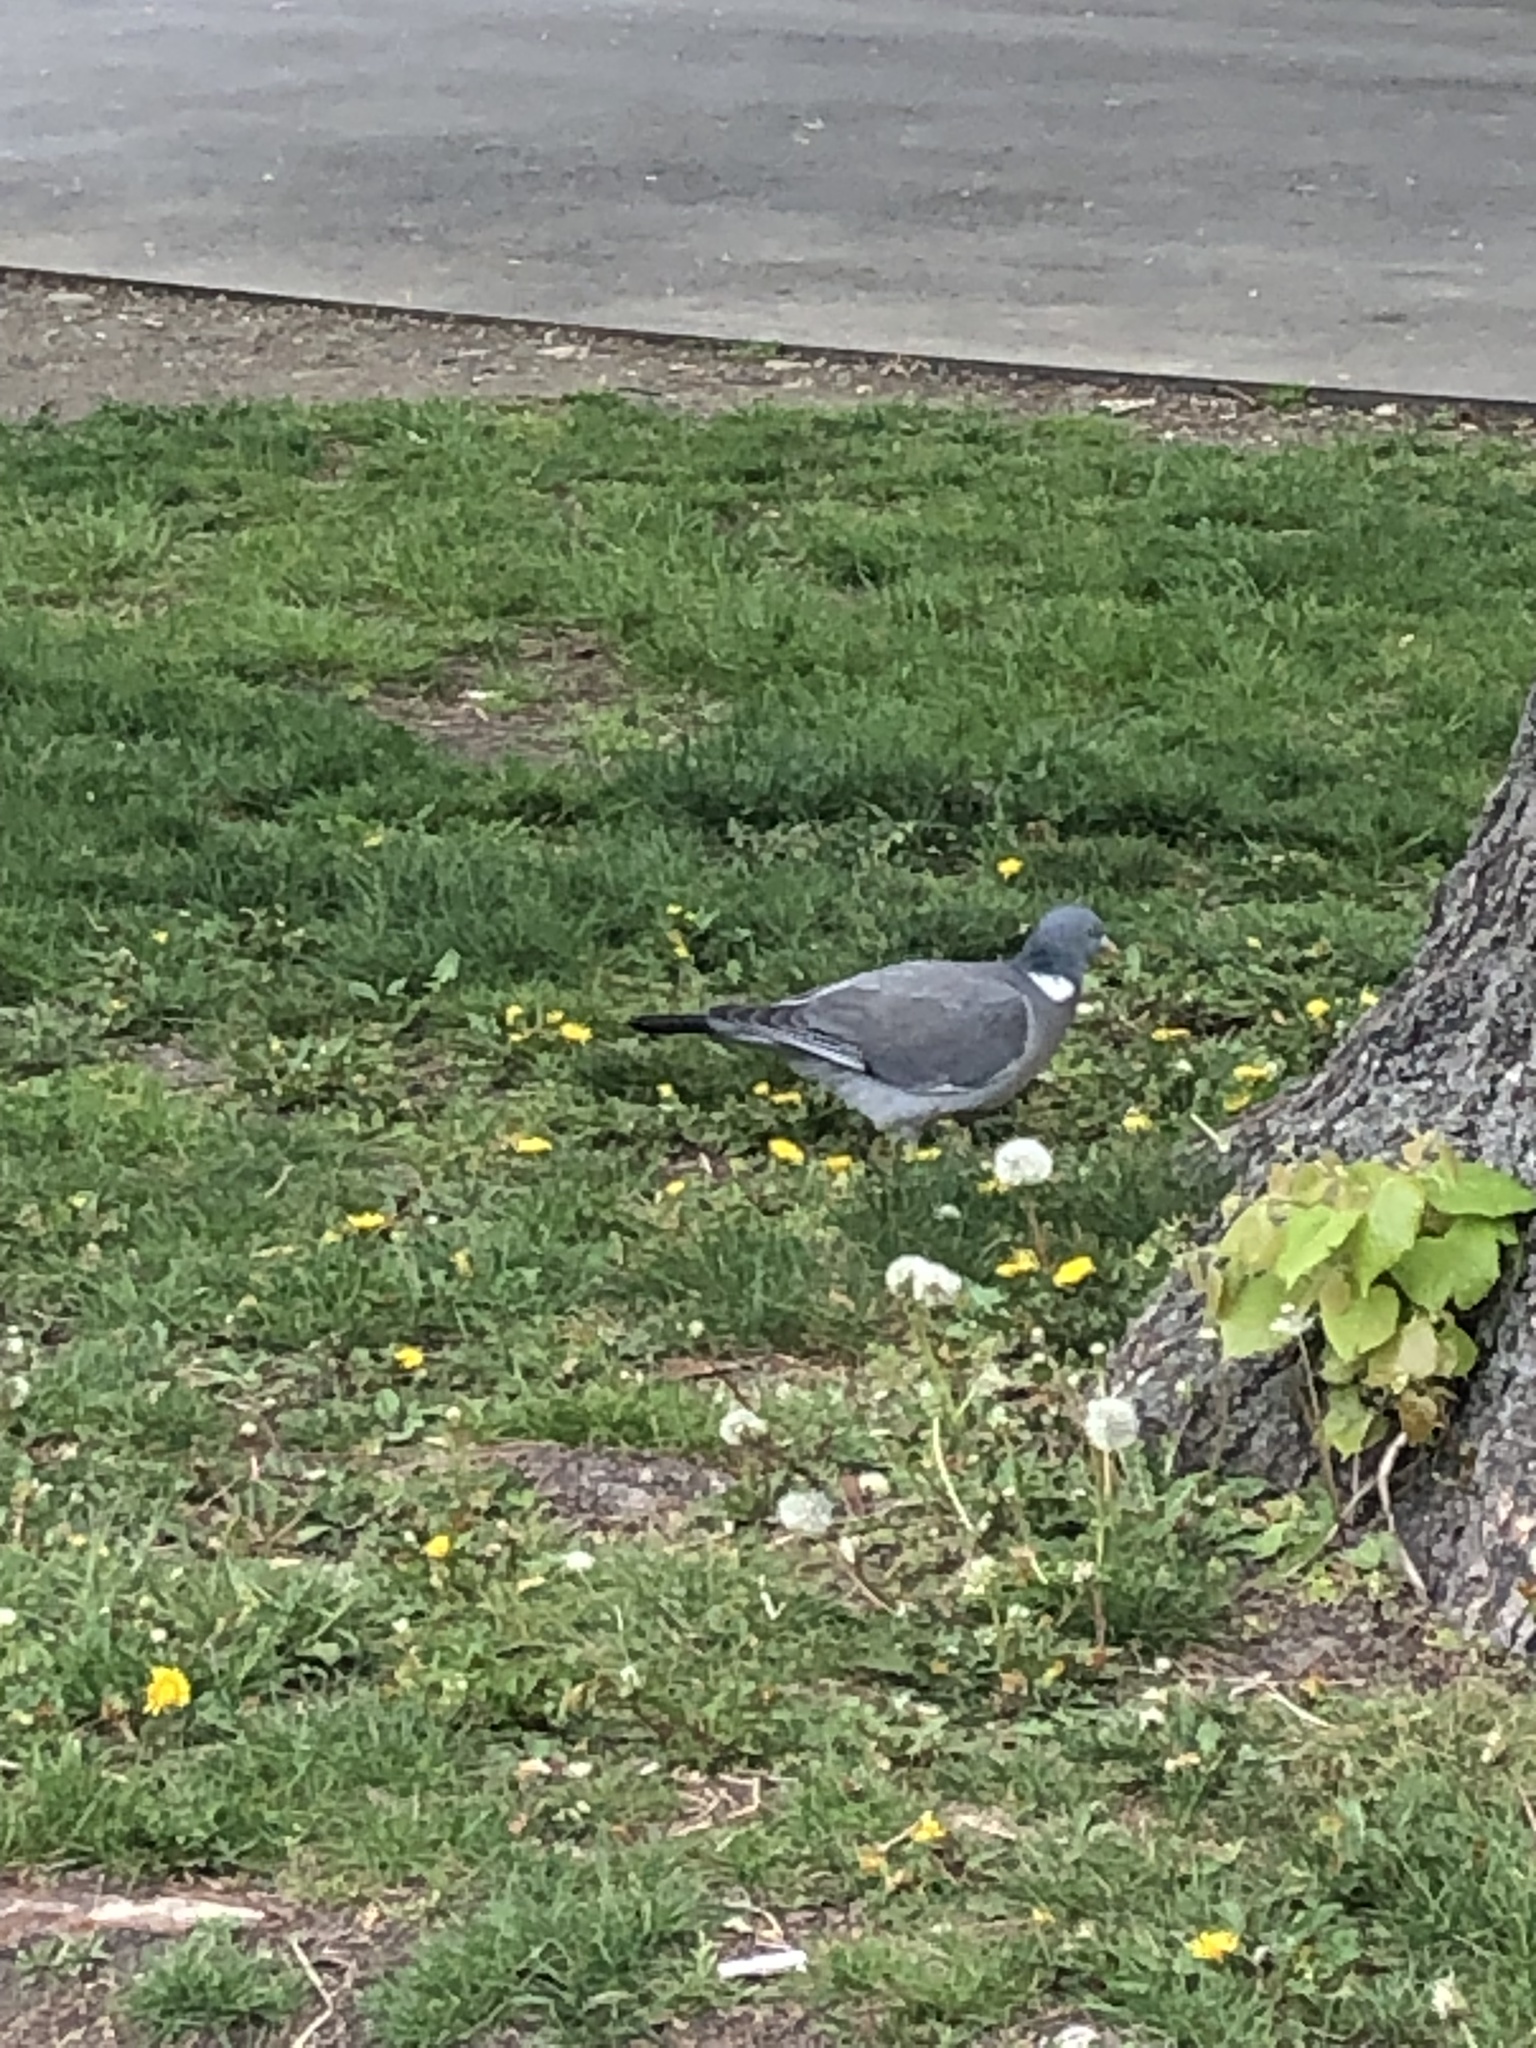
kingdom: Animalia
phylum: Chordata
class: Aves
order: Columbiformes
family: Columbidae
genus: Columba
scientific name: Columba palumbus
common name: Common wood pigeon
